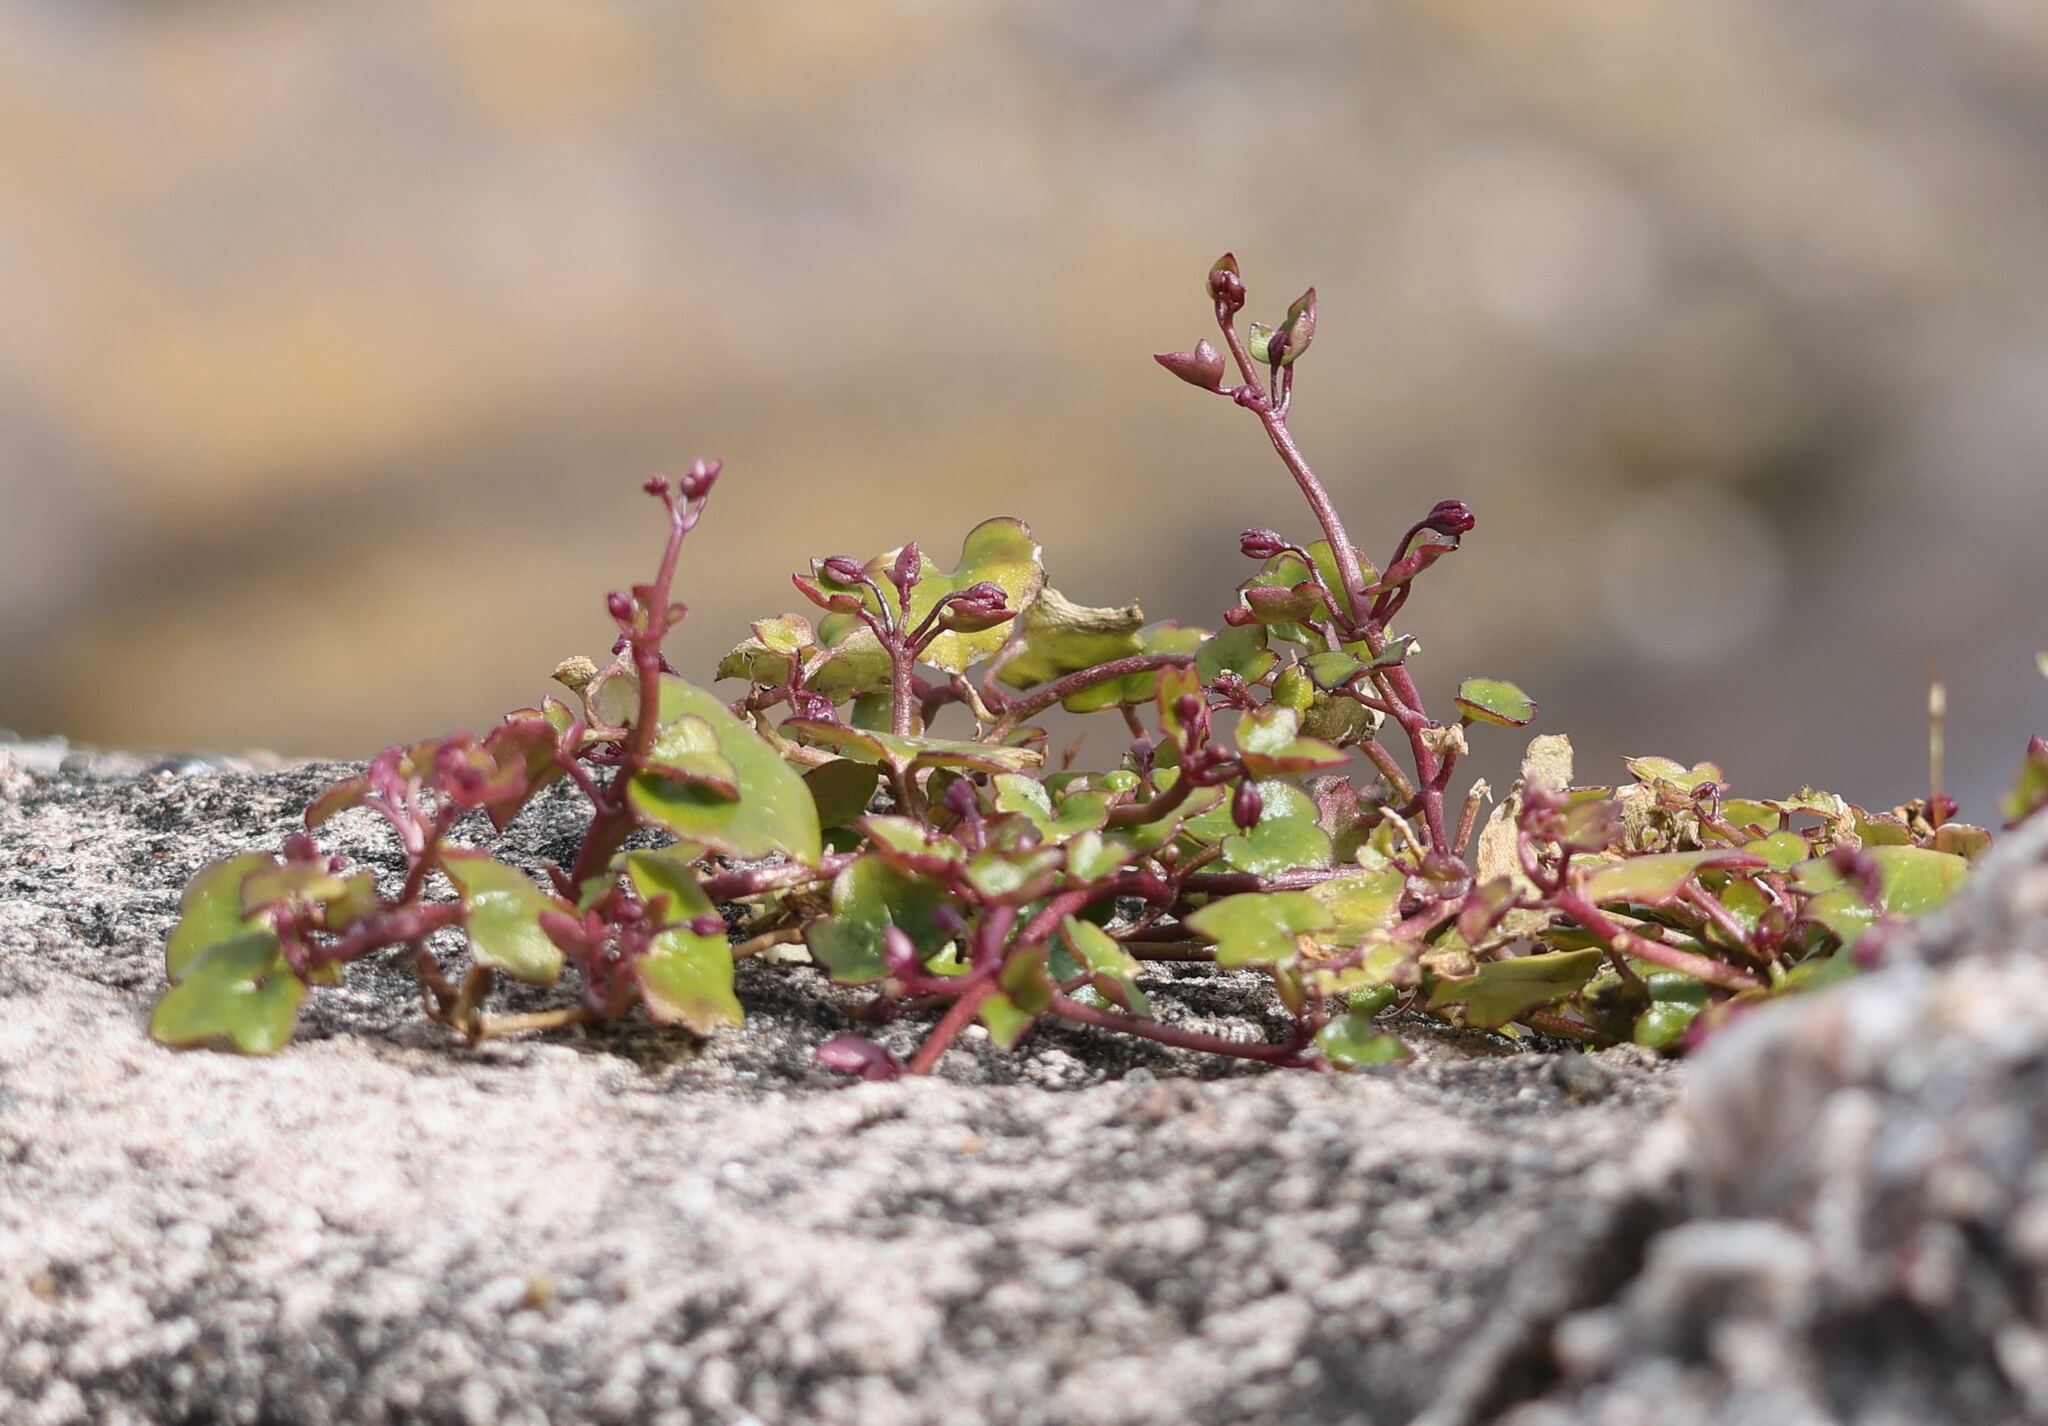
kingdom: Plantae
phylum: Tracheophyta
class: Magnoliopsida
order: Lamiales
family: Plantaginaceae
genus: Cymbalaria
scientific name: Cymbalaria muralis
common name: Ivy-leaved toadflax
